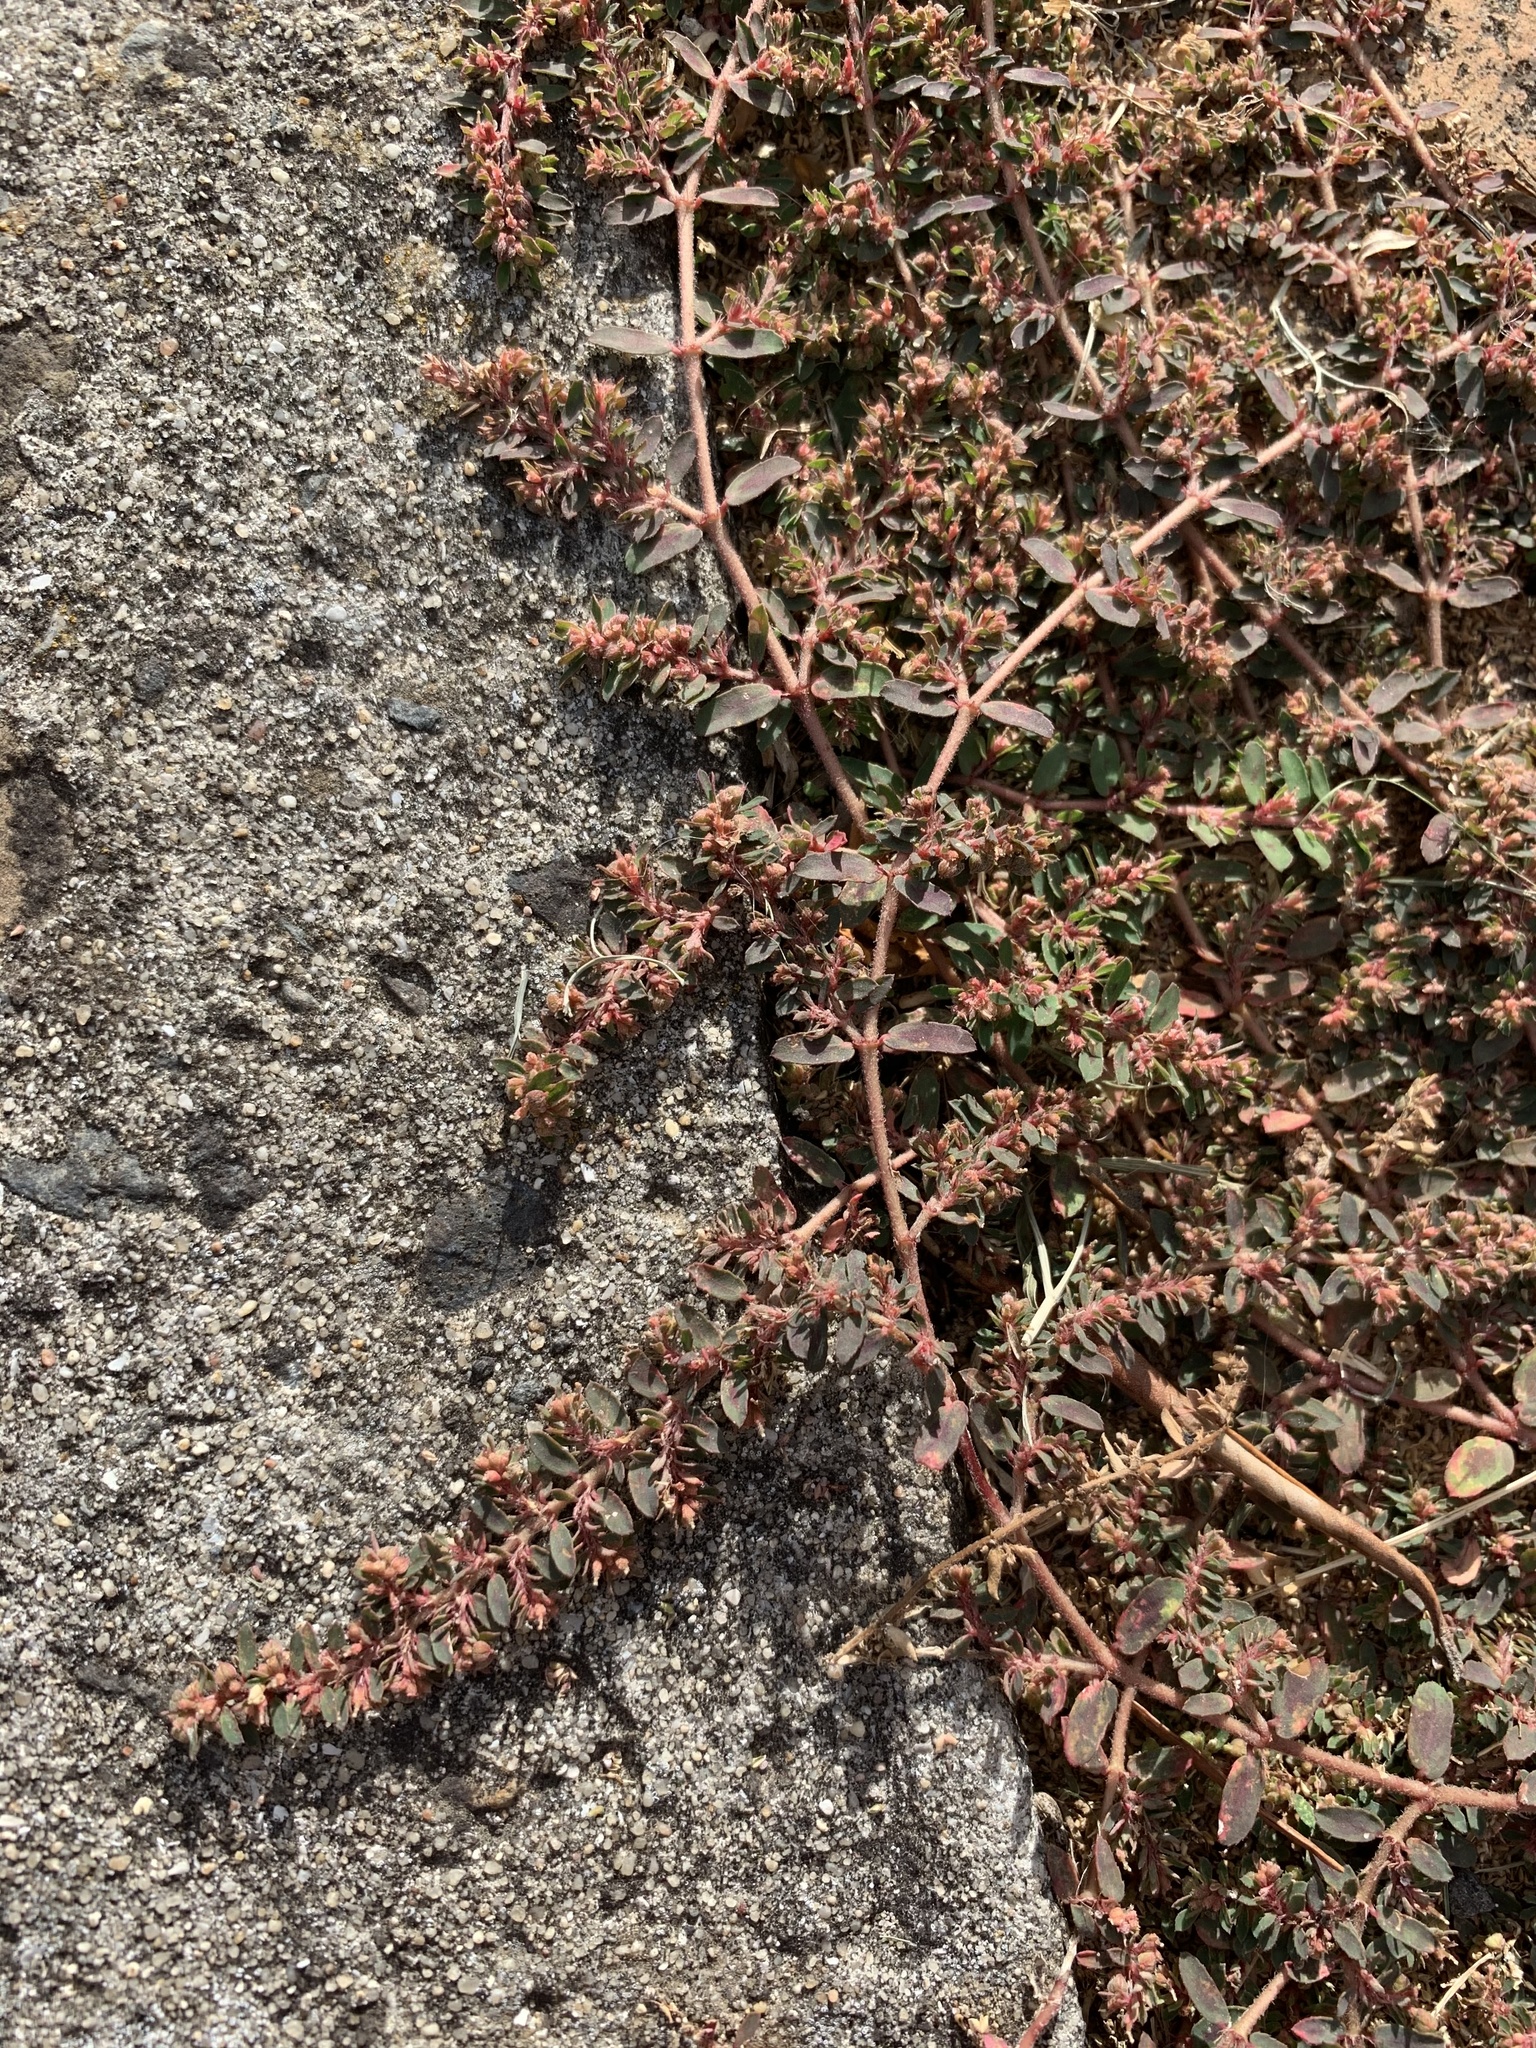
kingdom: Plantae
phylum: Tracheophyta
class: Magnoliopsida
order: Malpighiales
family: Euphorbiaceae
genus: Euphorbia
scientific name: Euphorbia maculata
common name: Spotted spurge
